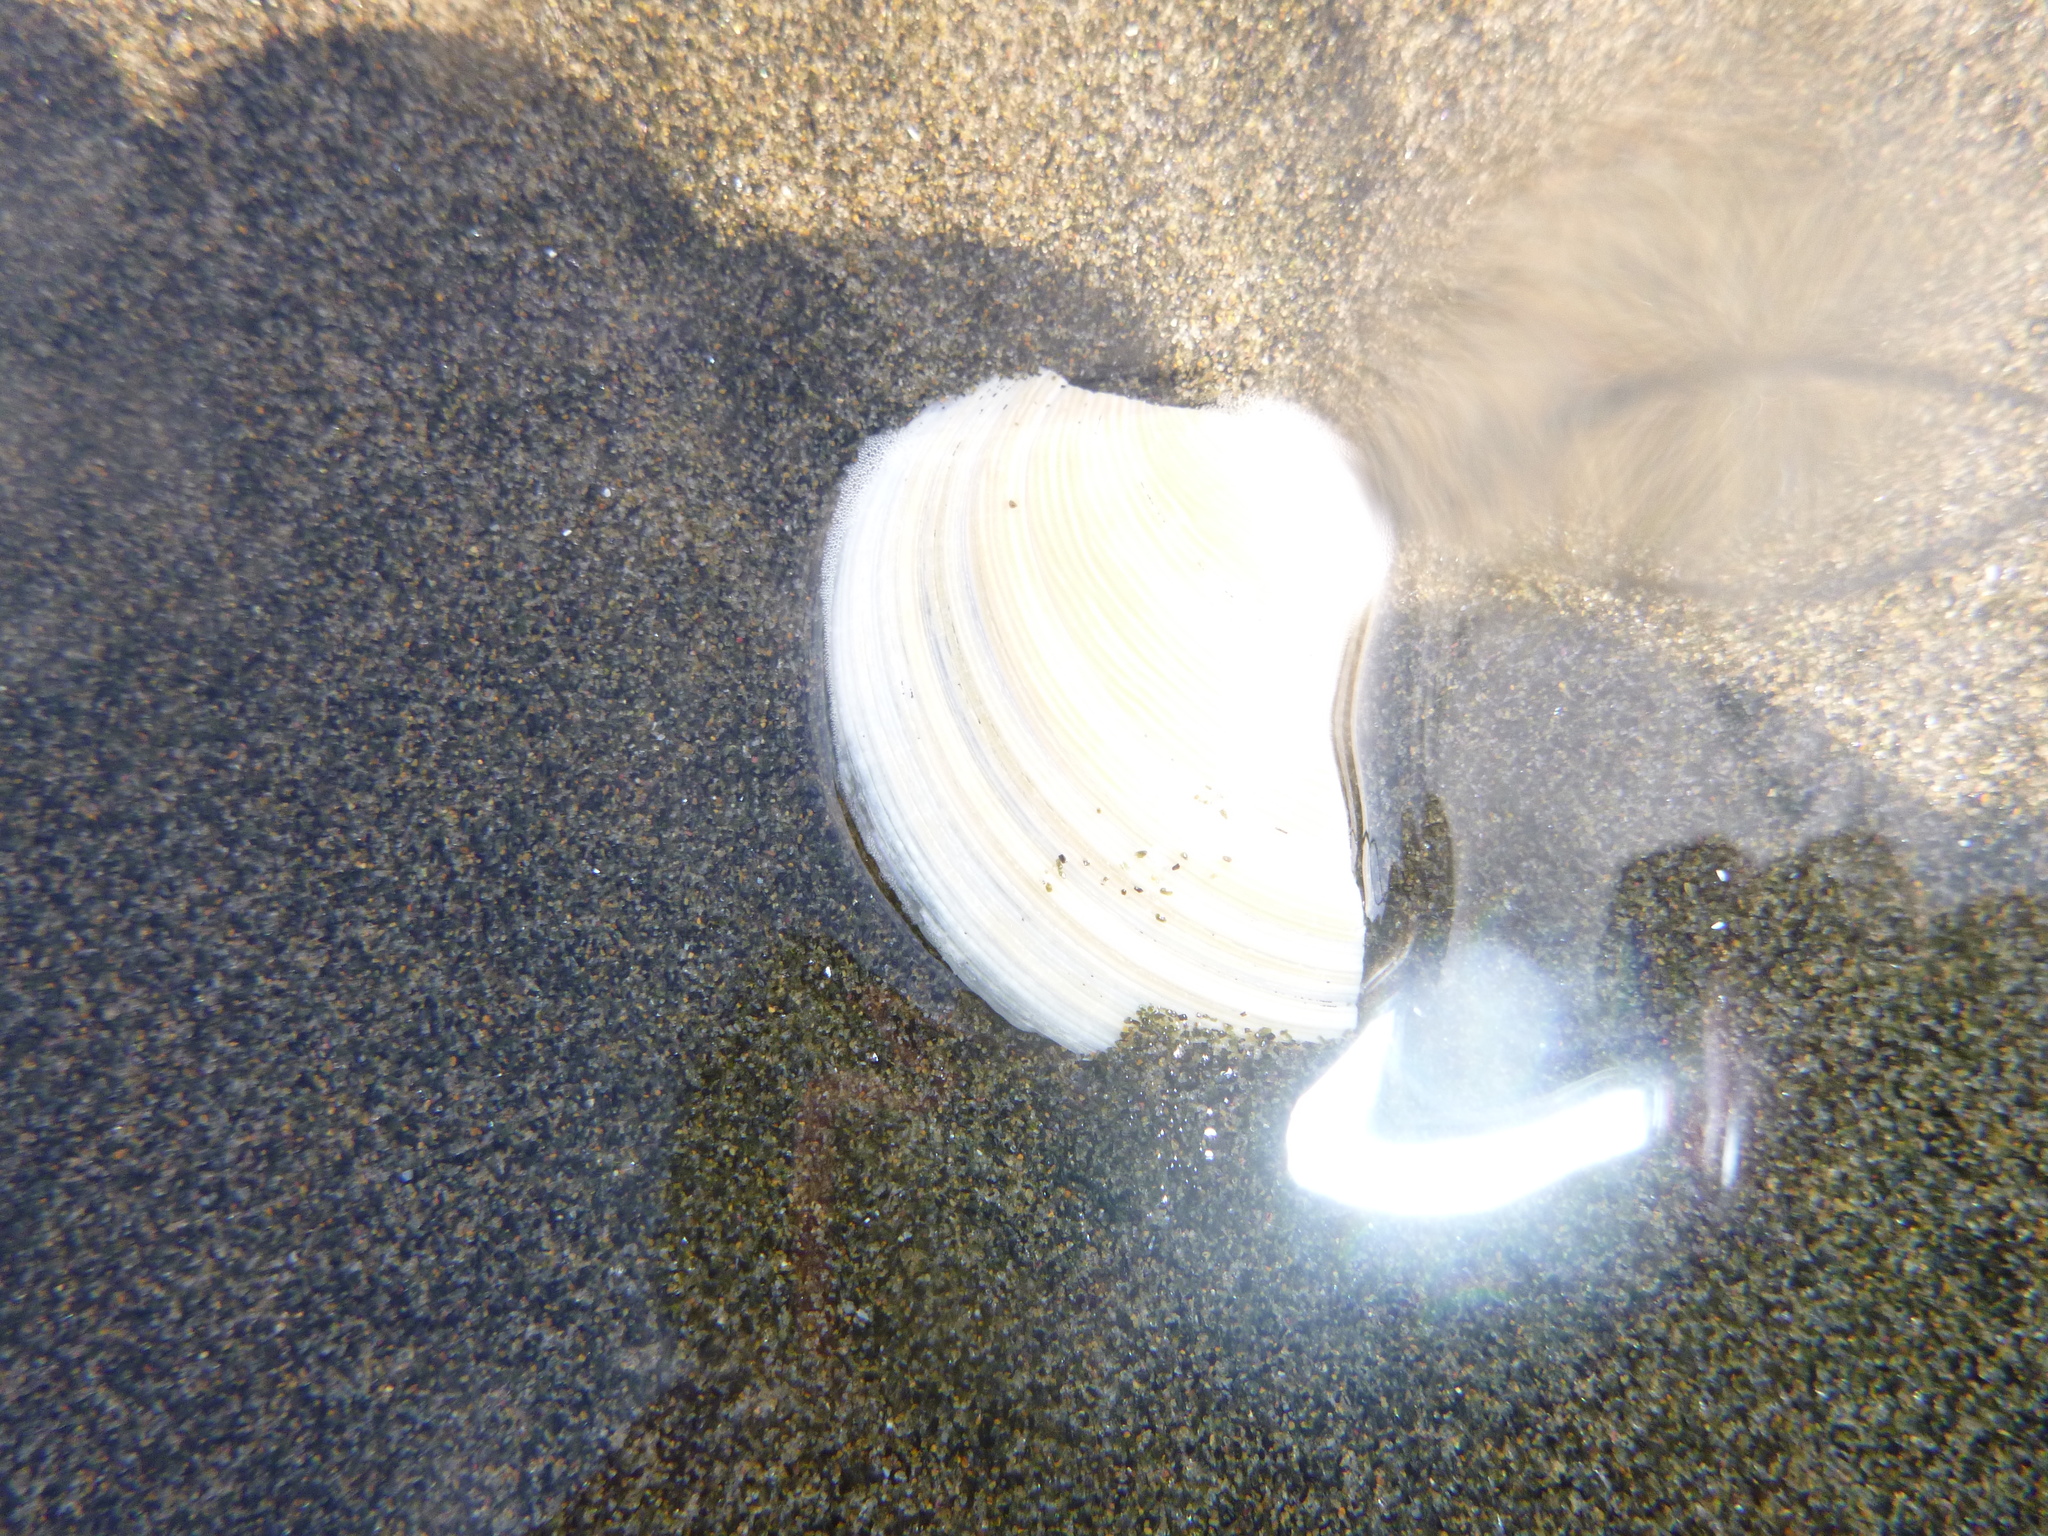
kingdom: Animalia
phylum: Mollusca
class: Bivalvia
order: Venerida
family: Veneridae
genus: Dosinia
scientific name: Dosinia anus
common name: Old-woman dosinia
